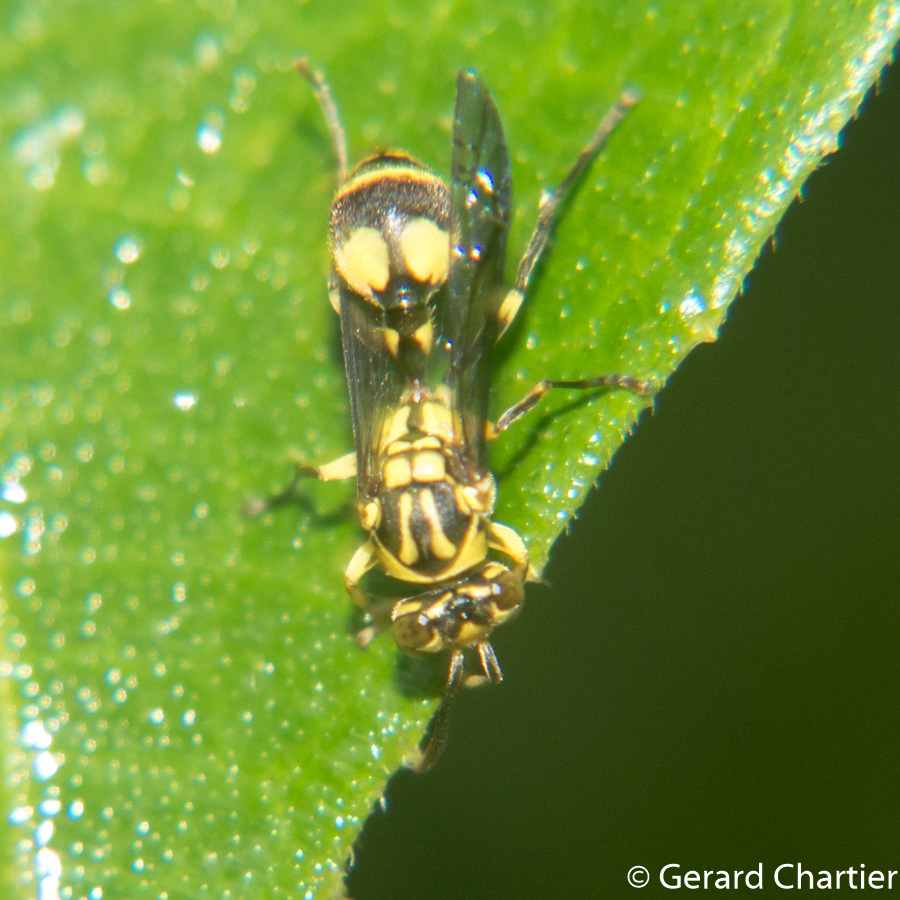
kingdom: Animalia
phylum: Arthropoda
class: Insecta
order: Hymenoptera
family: Vespidae
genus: Ropalidia
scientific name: Ropalidia ornaticeps
